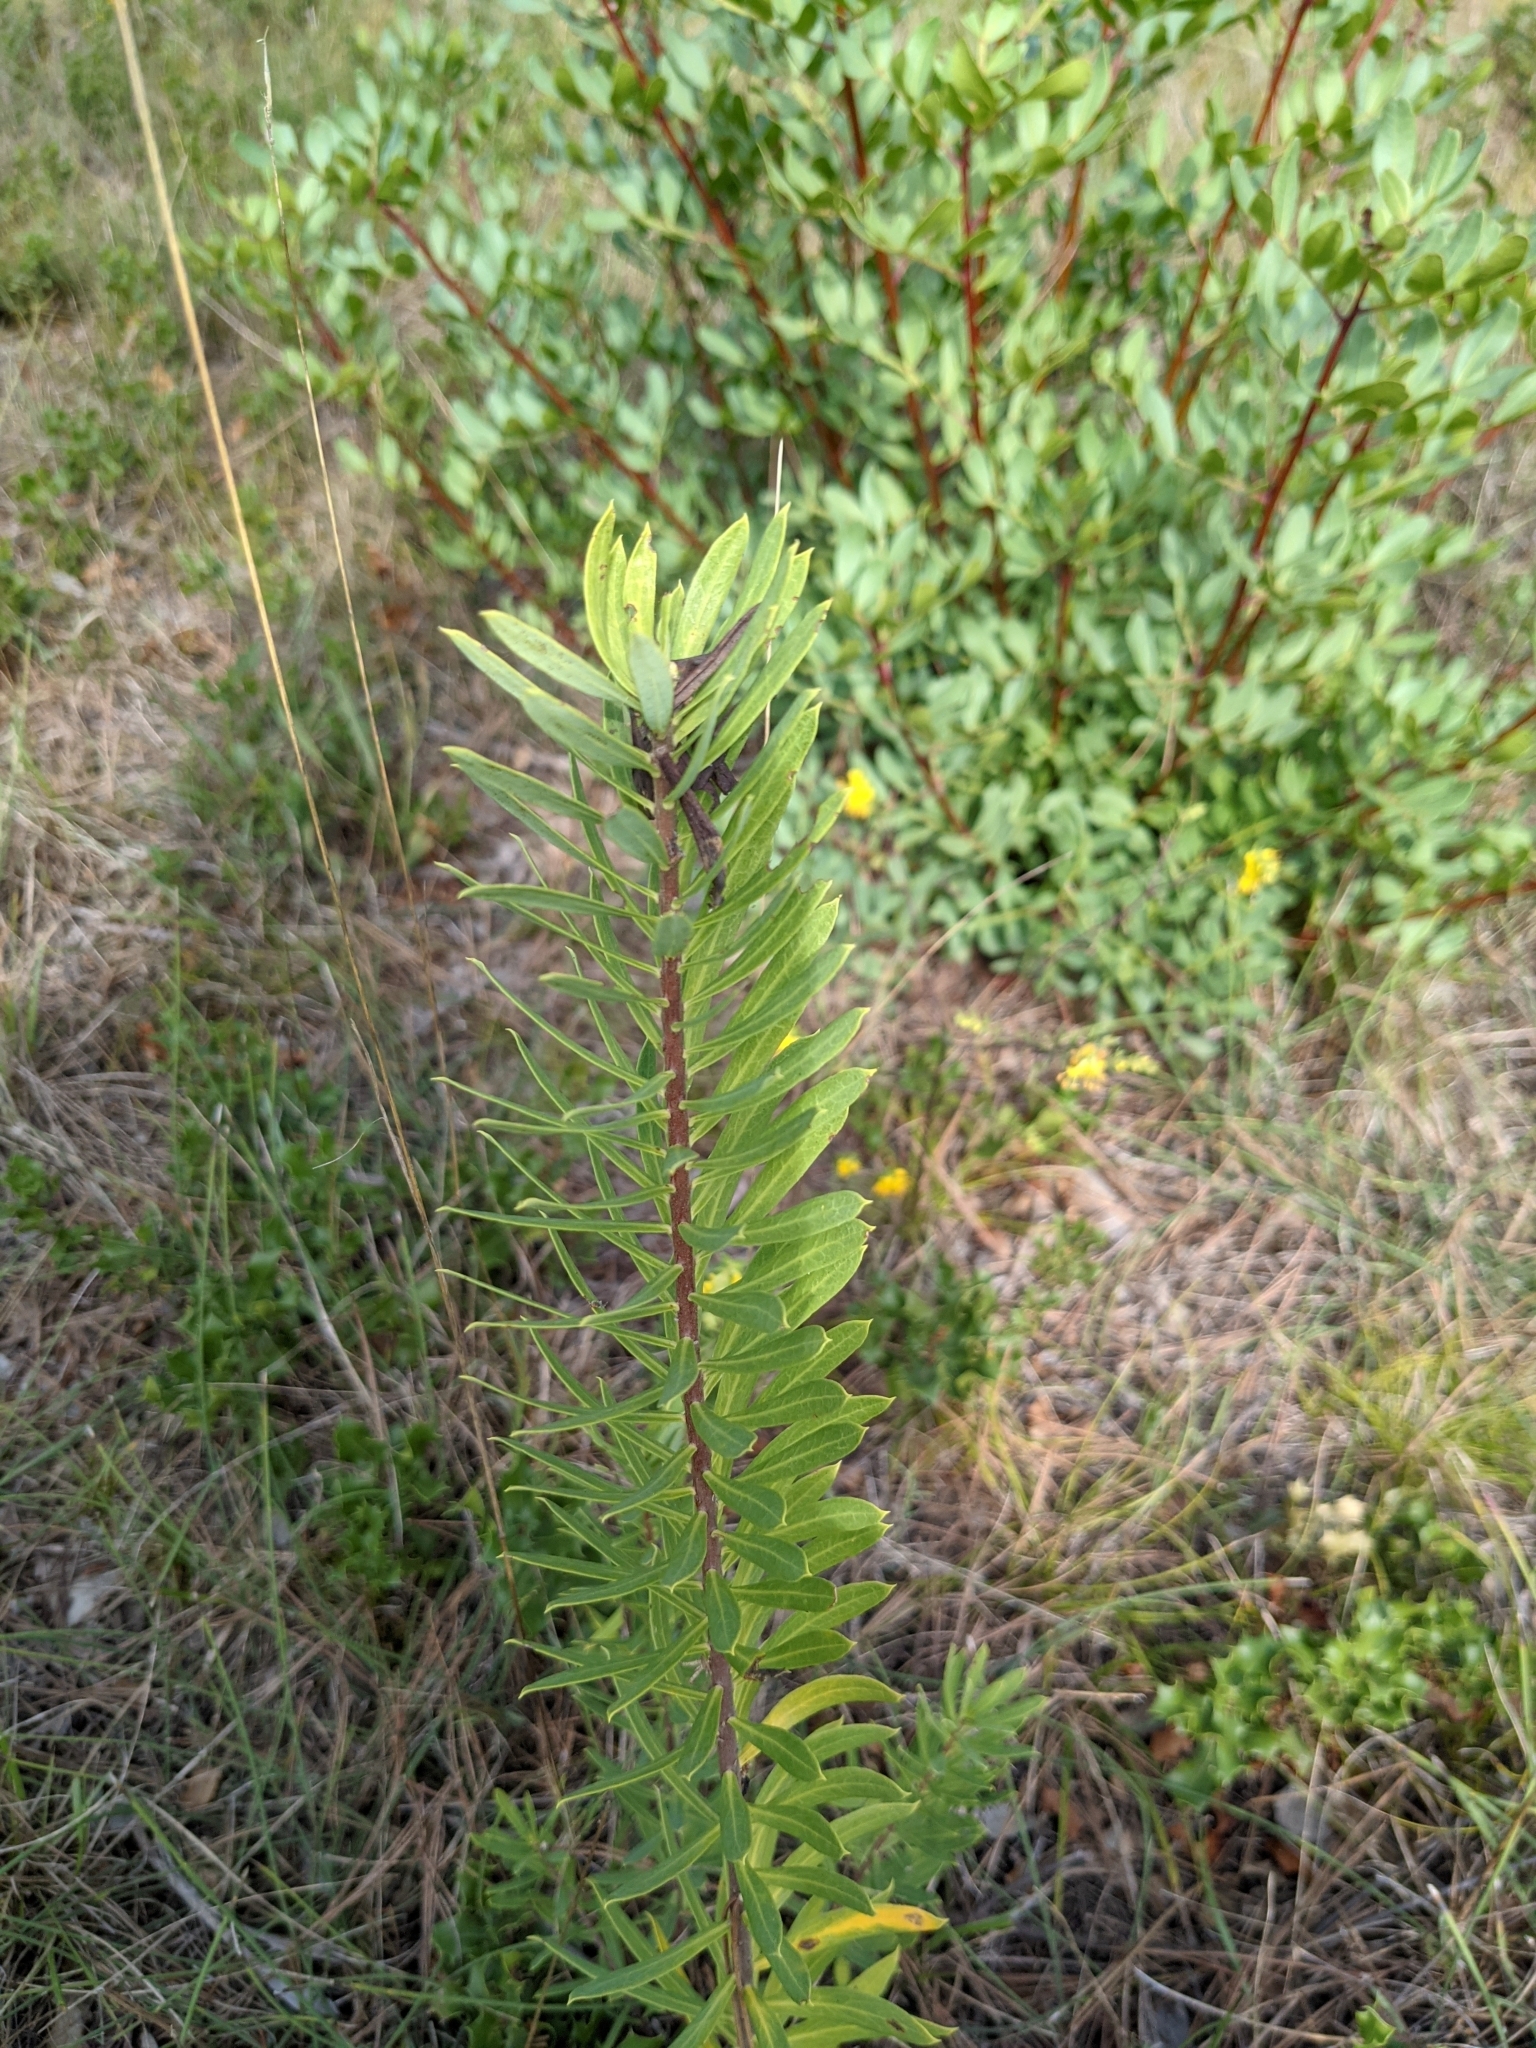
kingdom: Plantae
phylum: Tracheophyta
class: Magnoliopsida
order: Malvales
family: Thymelaeaceae
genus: Daphne
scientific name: Daphne gnidium
